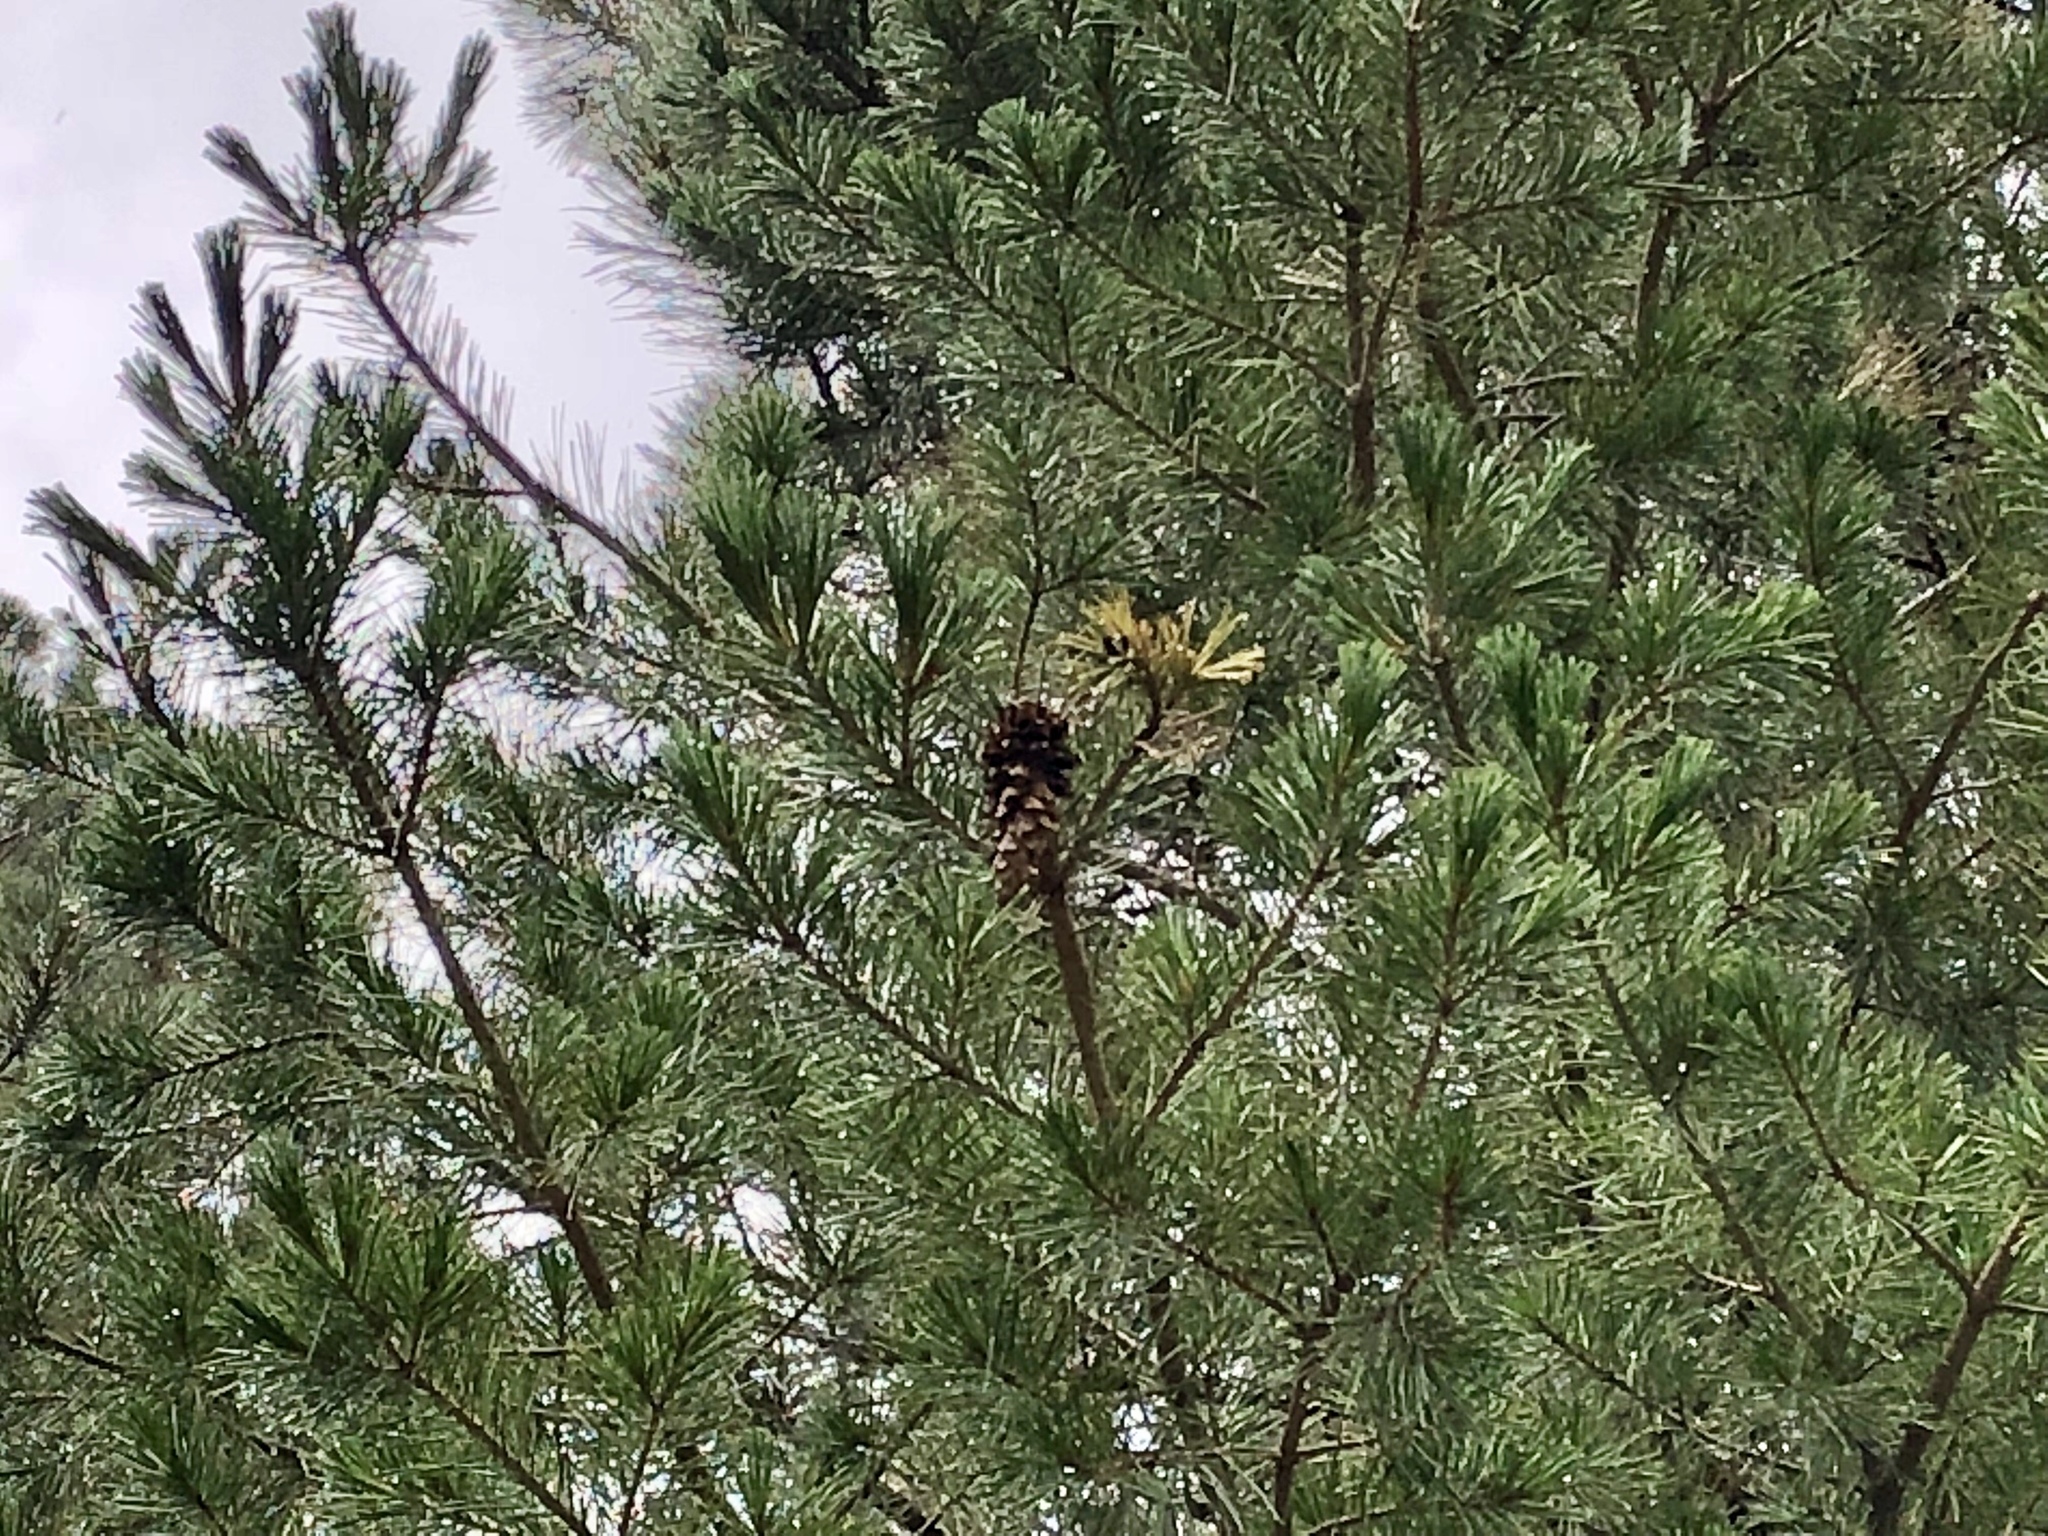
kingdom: Plantae
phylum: Tracheophyta
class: Pinopsida
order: Pinales
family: Pinaceae
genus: Pinus
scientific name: Pinus strobiformis
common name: Southwestern white pine
